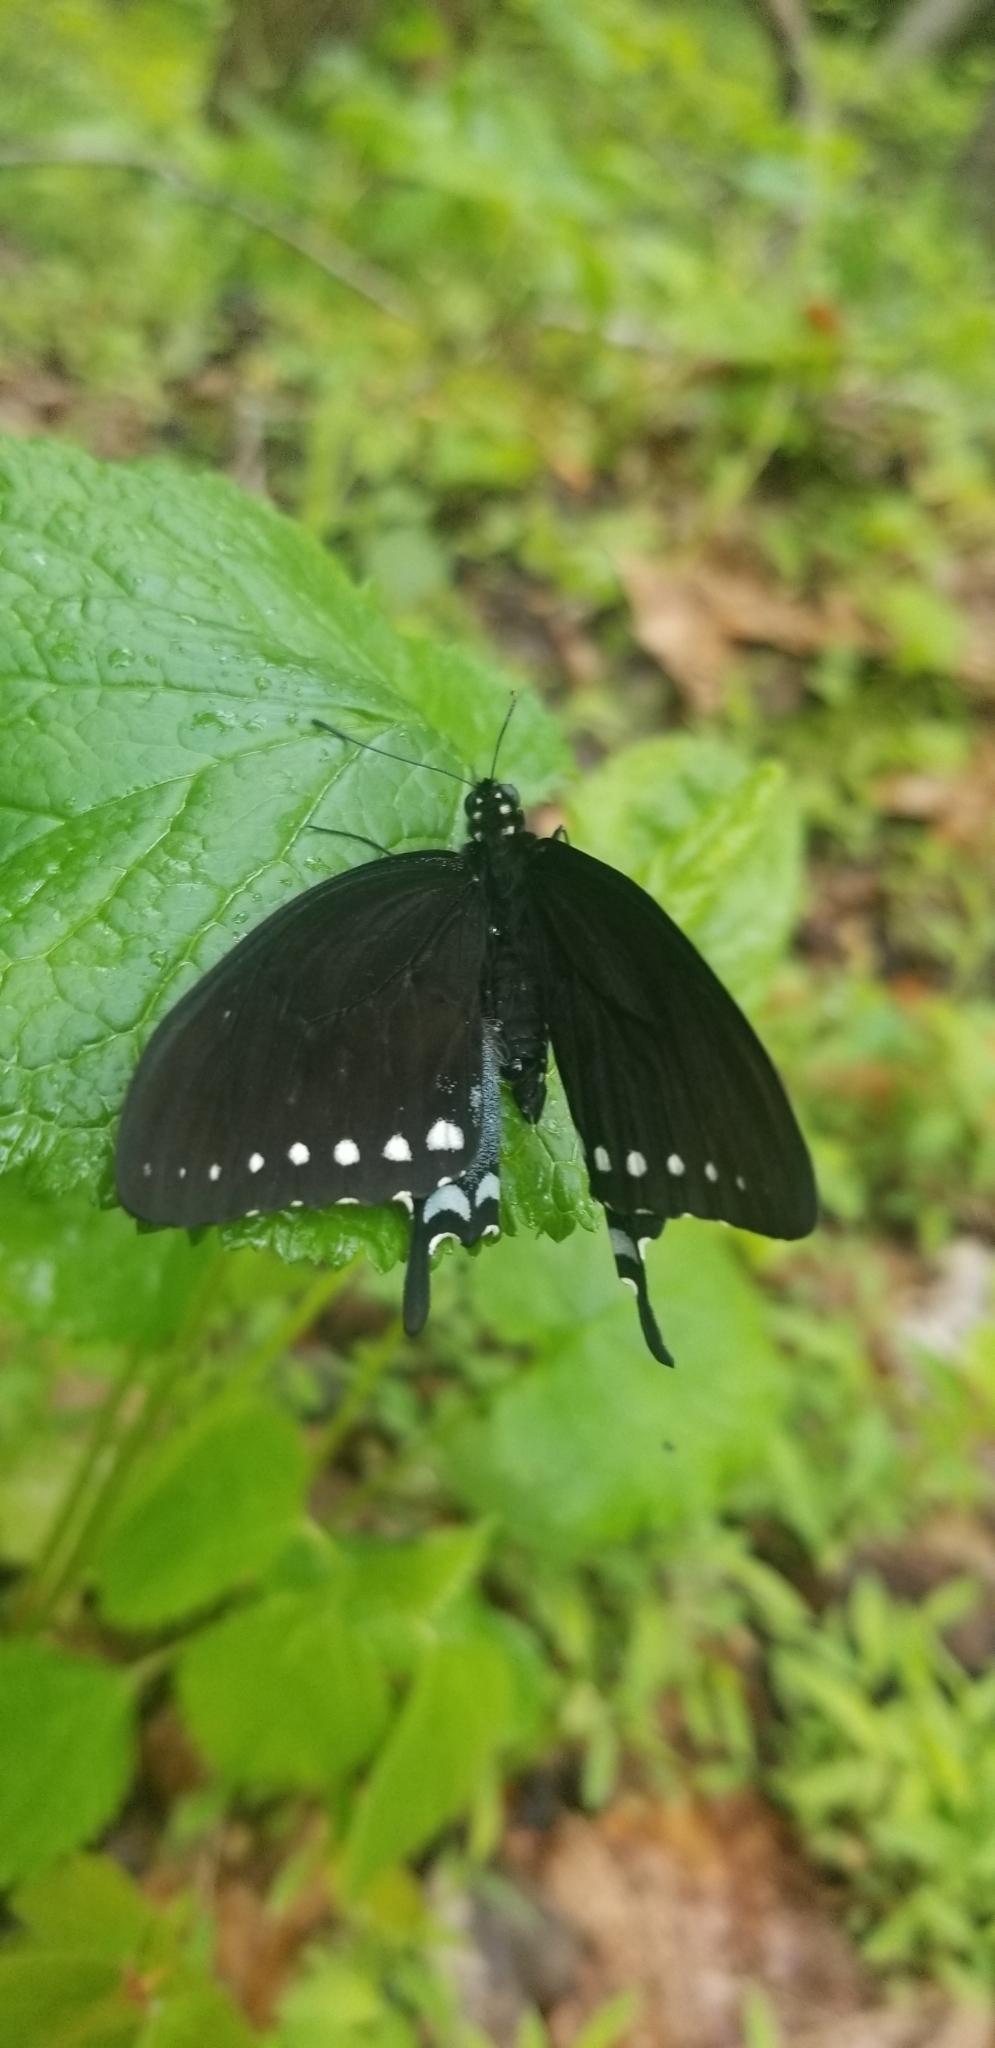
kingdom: Animalia
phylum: Arthropoda
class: Insecta
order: Lepidoptera
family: Papilionidae
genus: Papilio
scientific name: Papilio troilus
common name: Spicebush swallowtail
